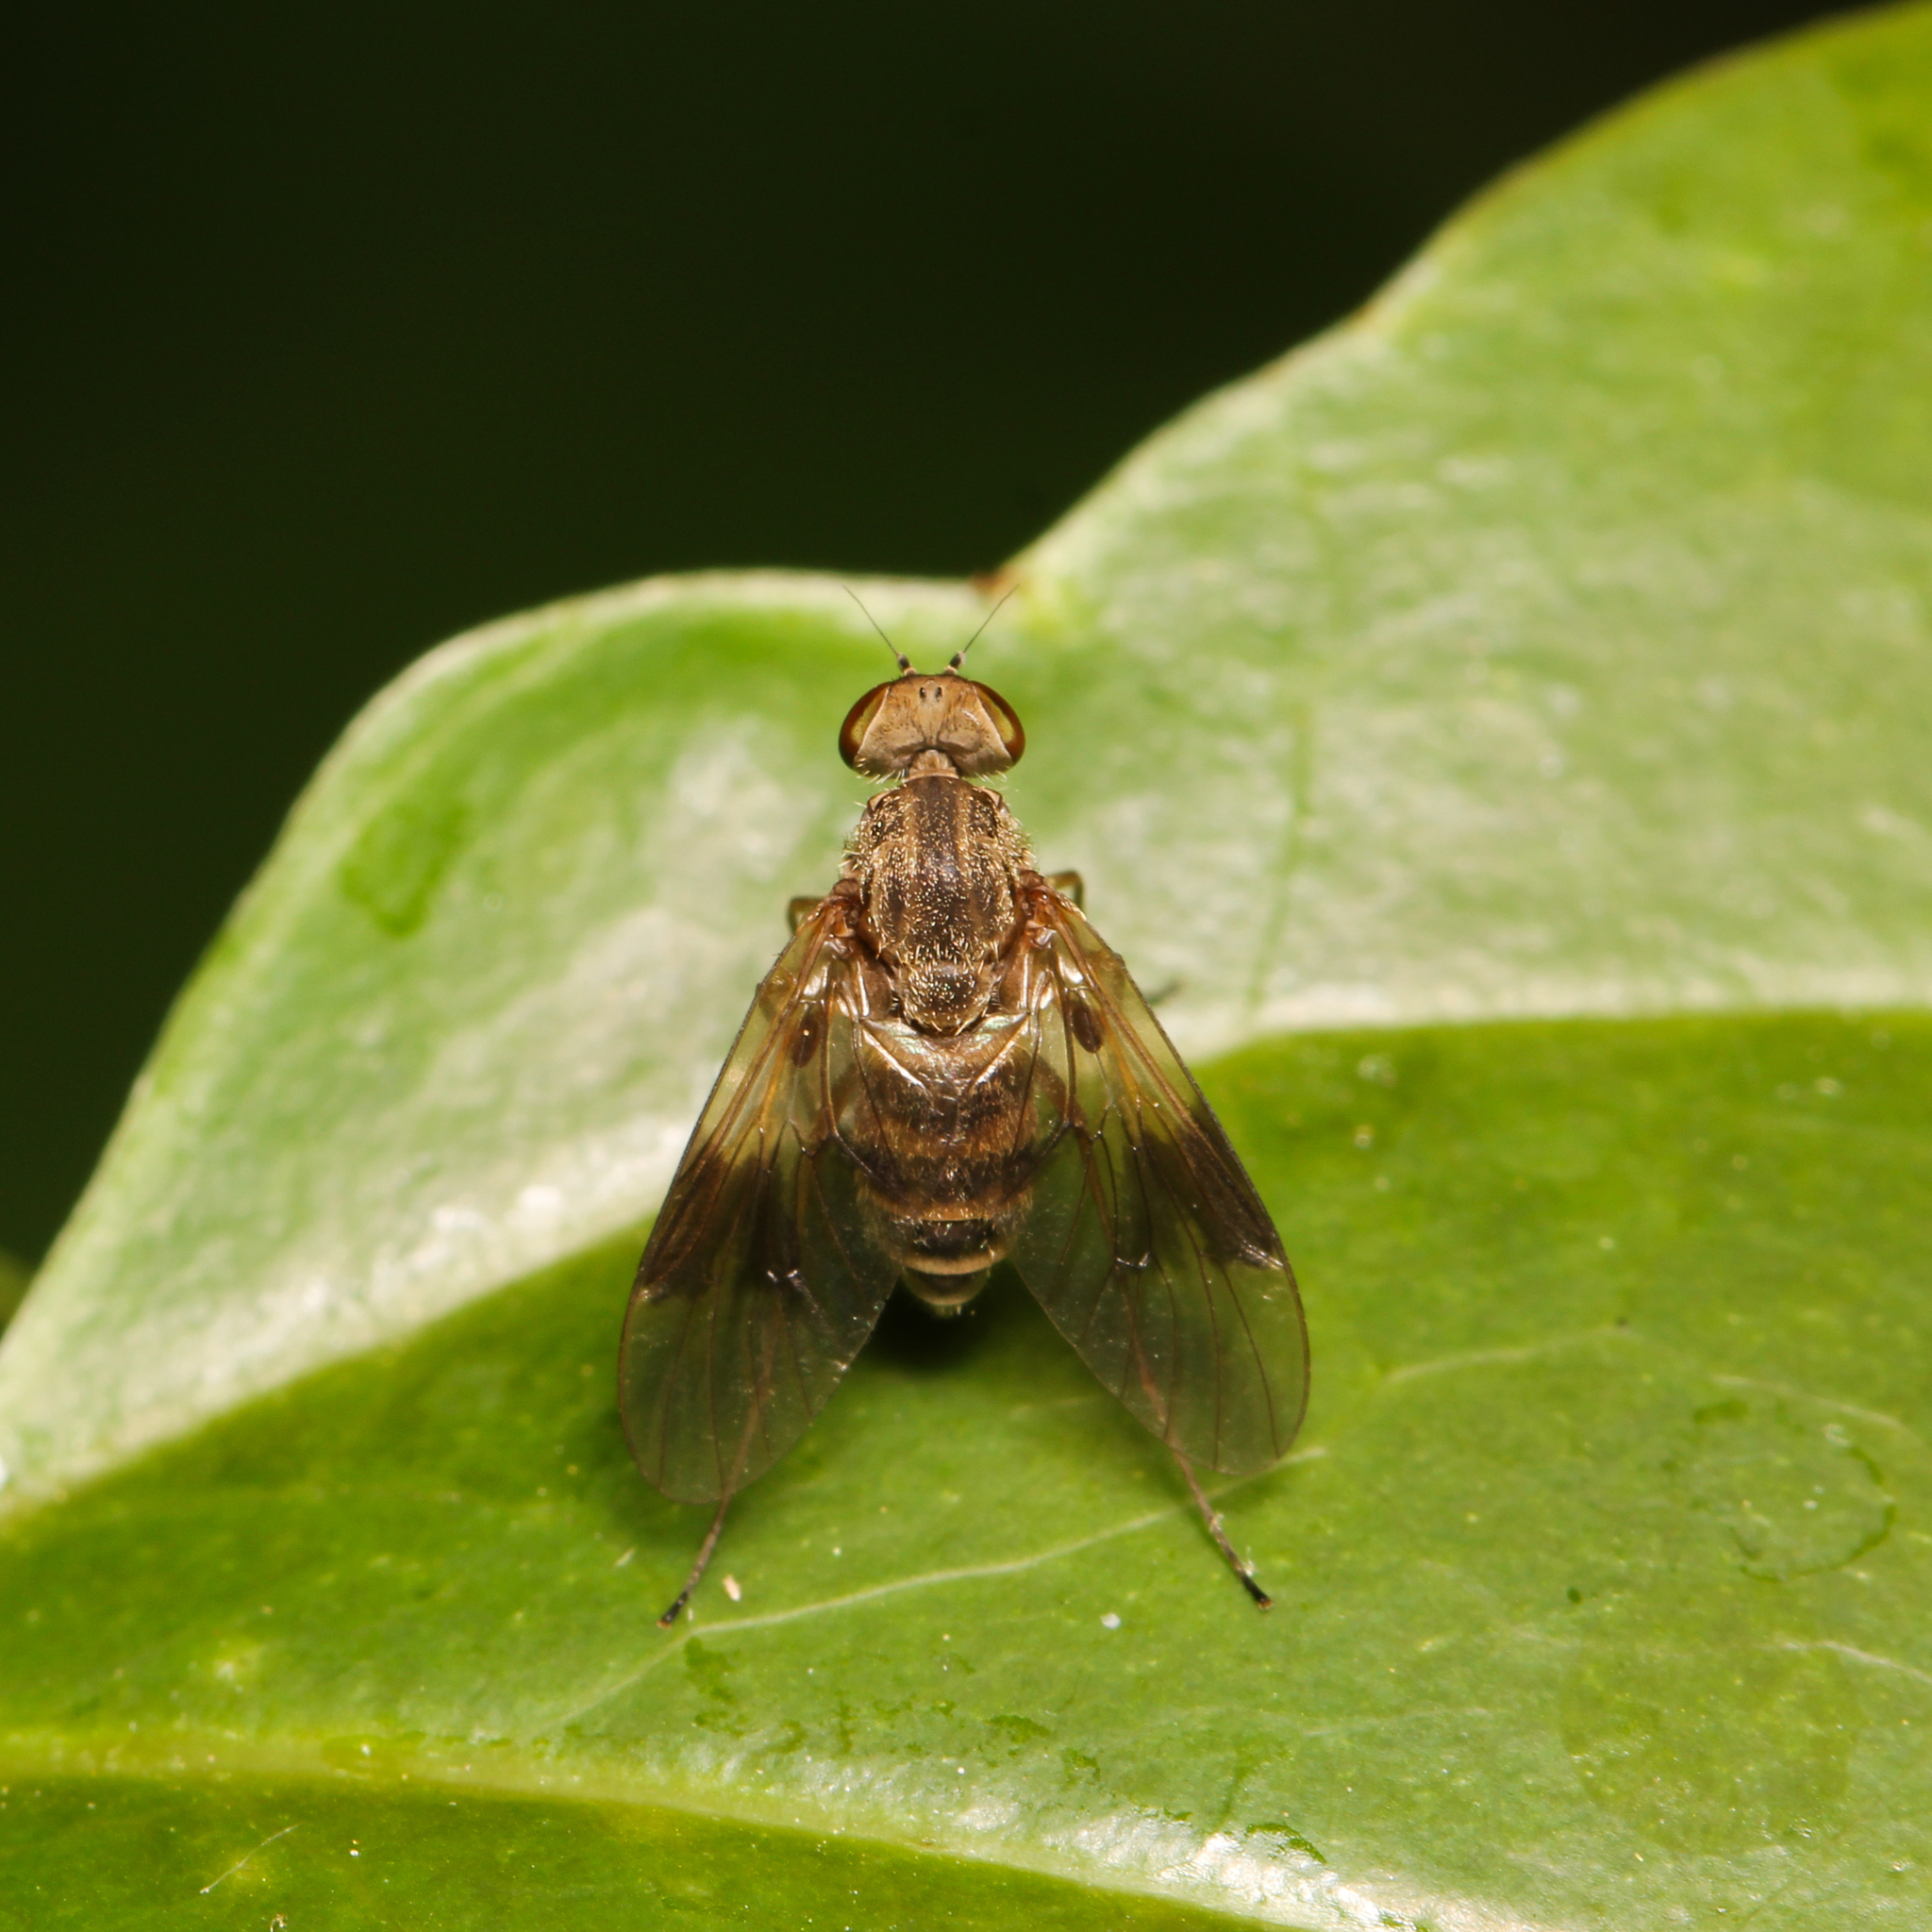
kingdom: Animalia
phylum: Arthropoda
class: Insecta
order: Diptera
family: Rhagionidae
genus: Chrysopilus
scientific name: Chrysopilus quadratus
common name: Quadrate snipe fly
